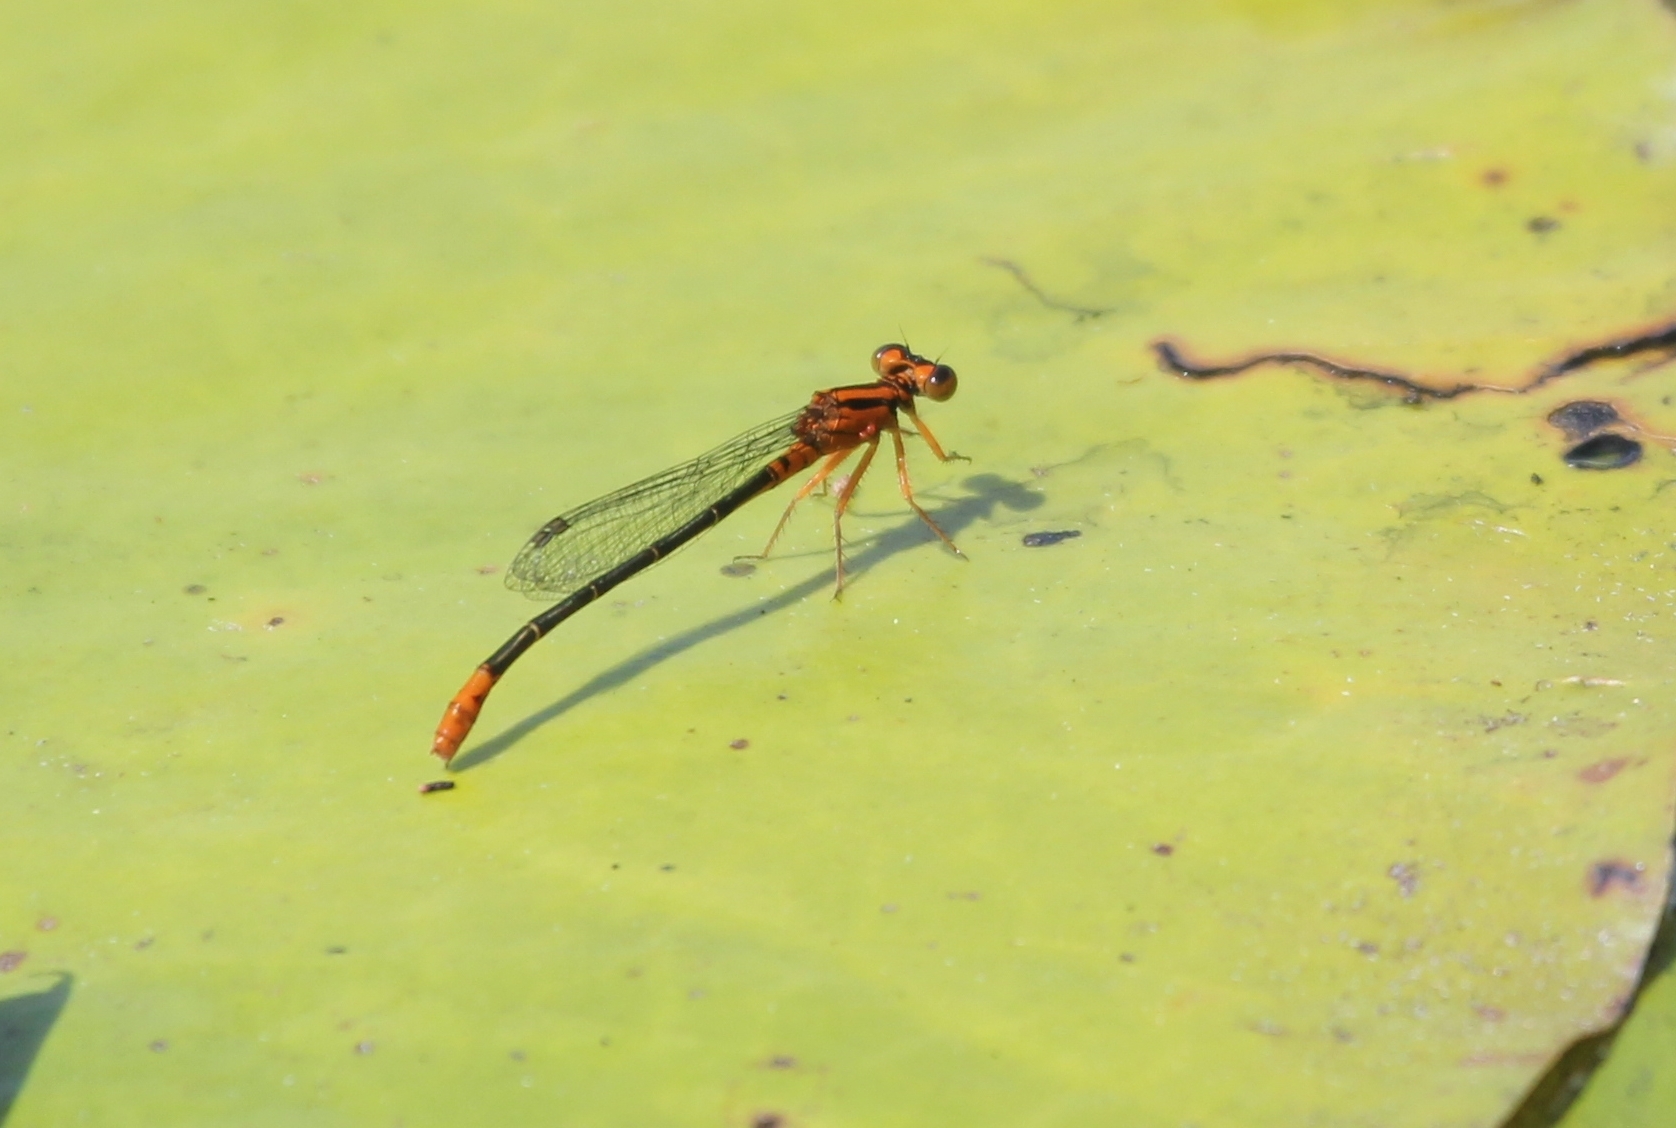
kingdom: Animalia
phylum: Arthropoda
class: Insecta
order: Odonata
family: Coenagrionidae
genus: Ischnura
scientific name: Ischnura kellicotti
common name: Lilypad forktail
